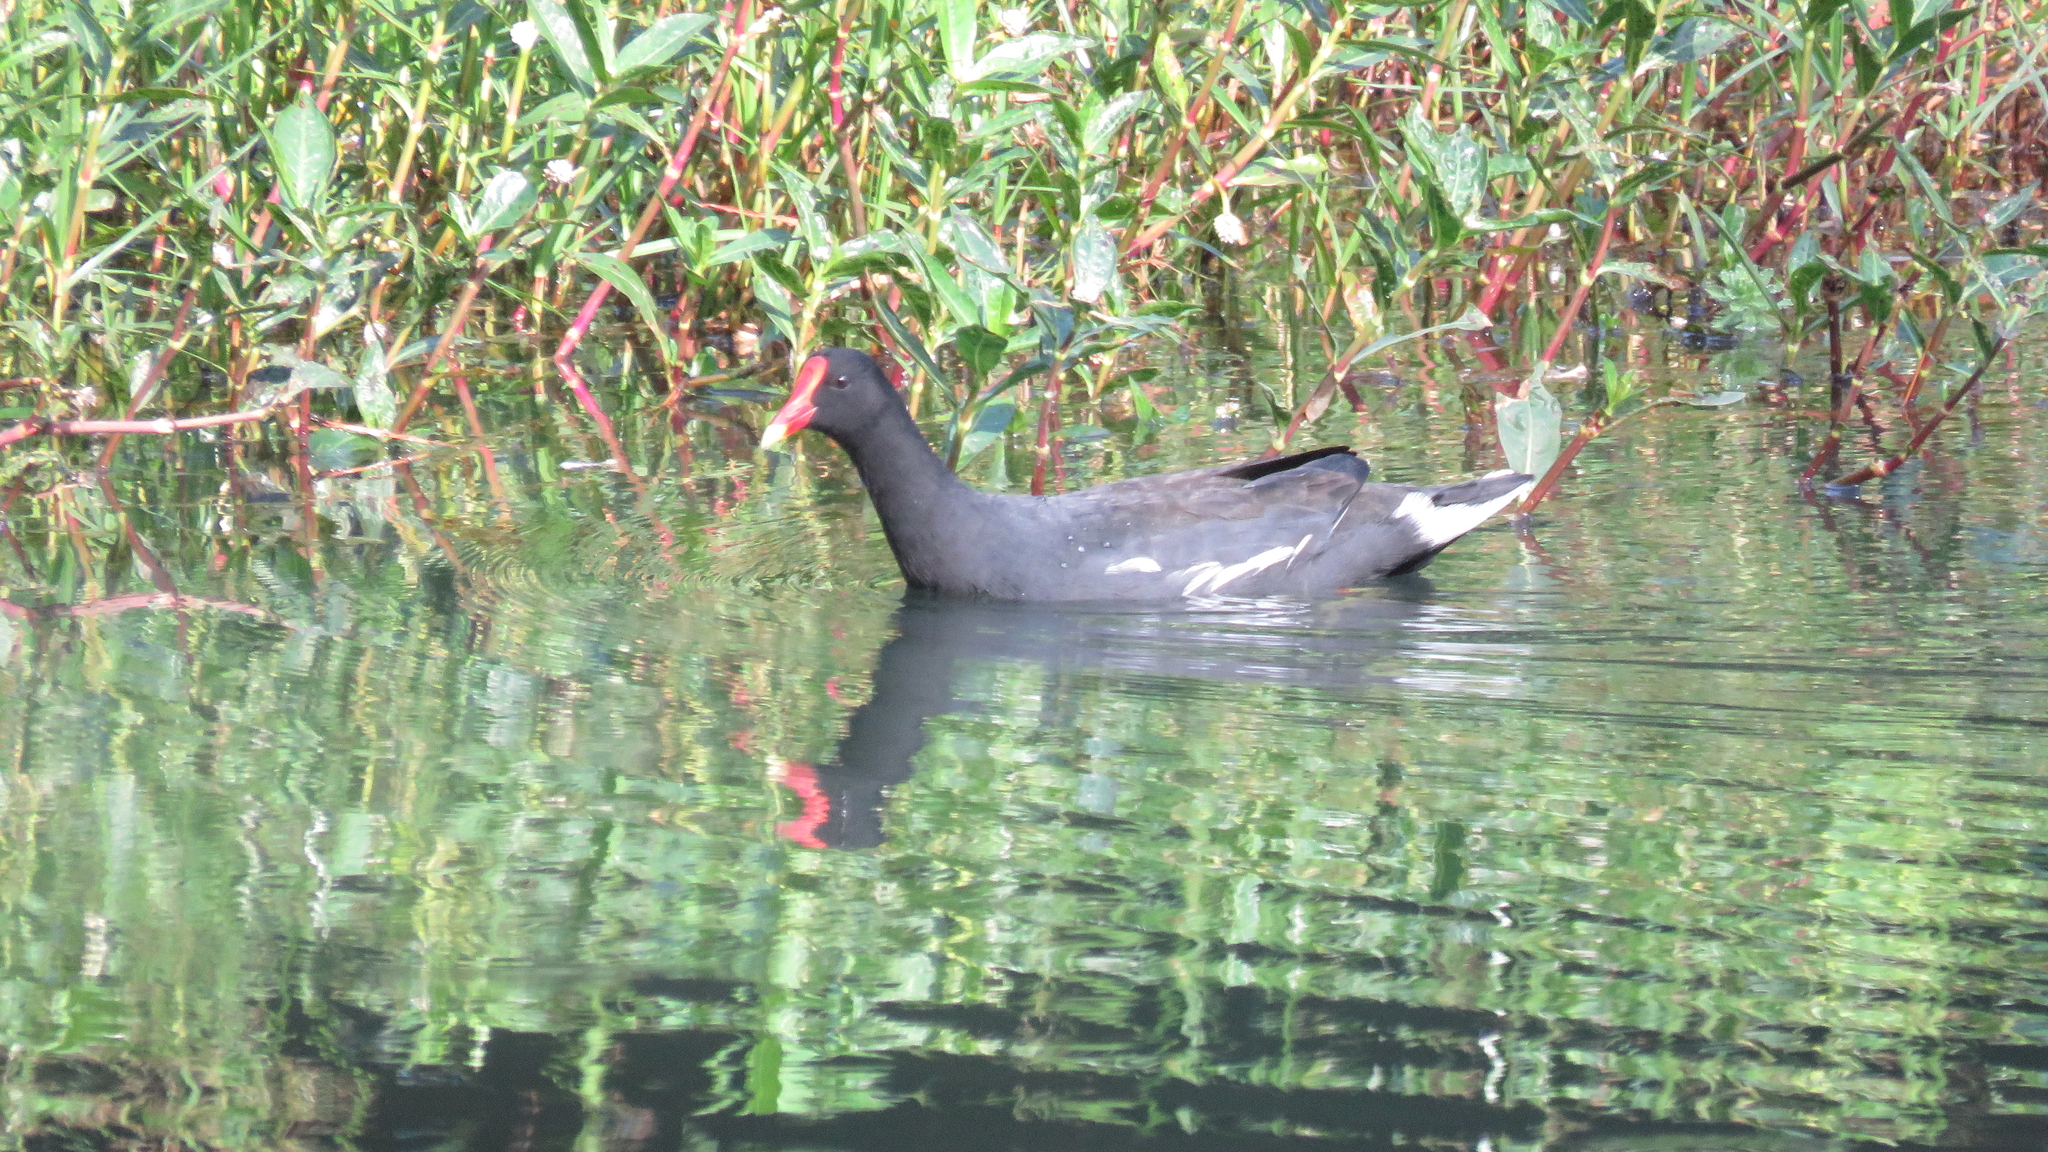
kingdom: Animalia
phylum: Chordata
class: Aves
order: Gruiformes
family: Rallidae
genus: Gallinula
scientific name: Gallinula chloropus
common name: Common moorhen
